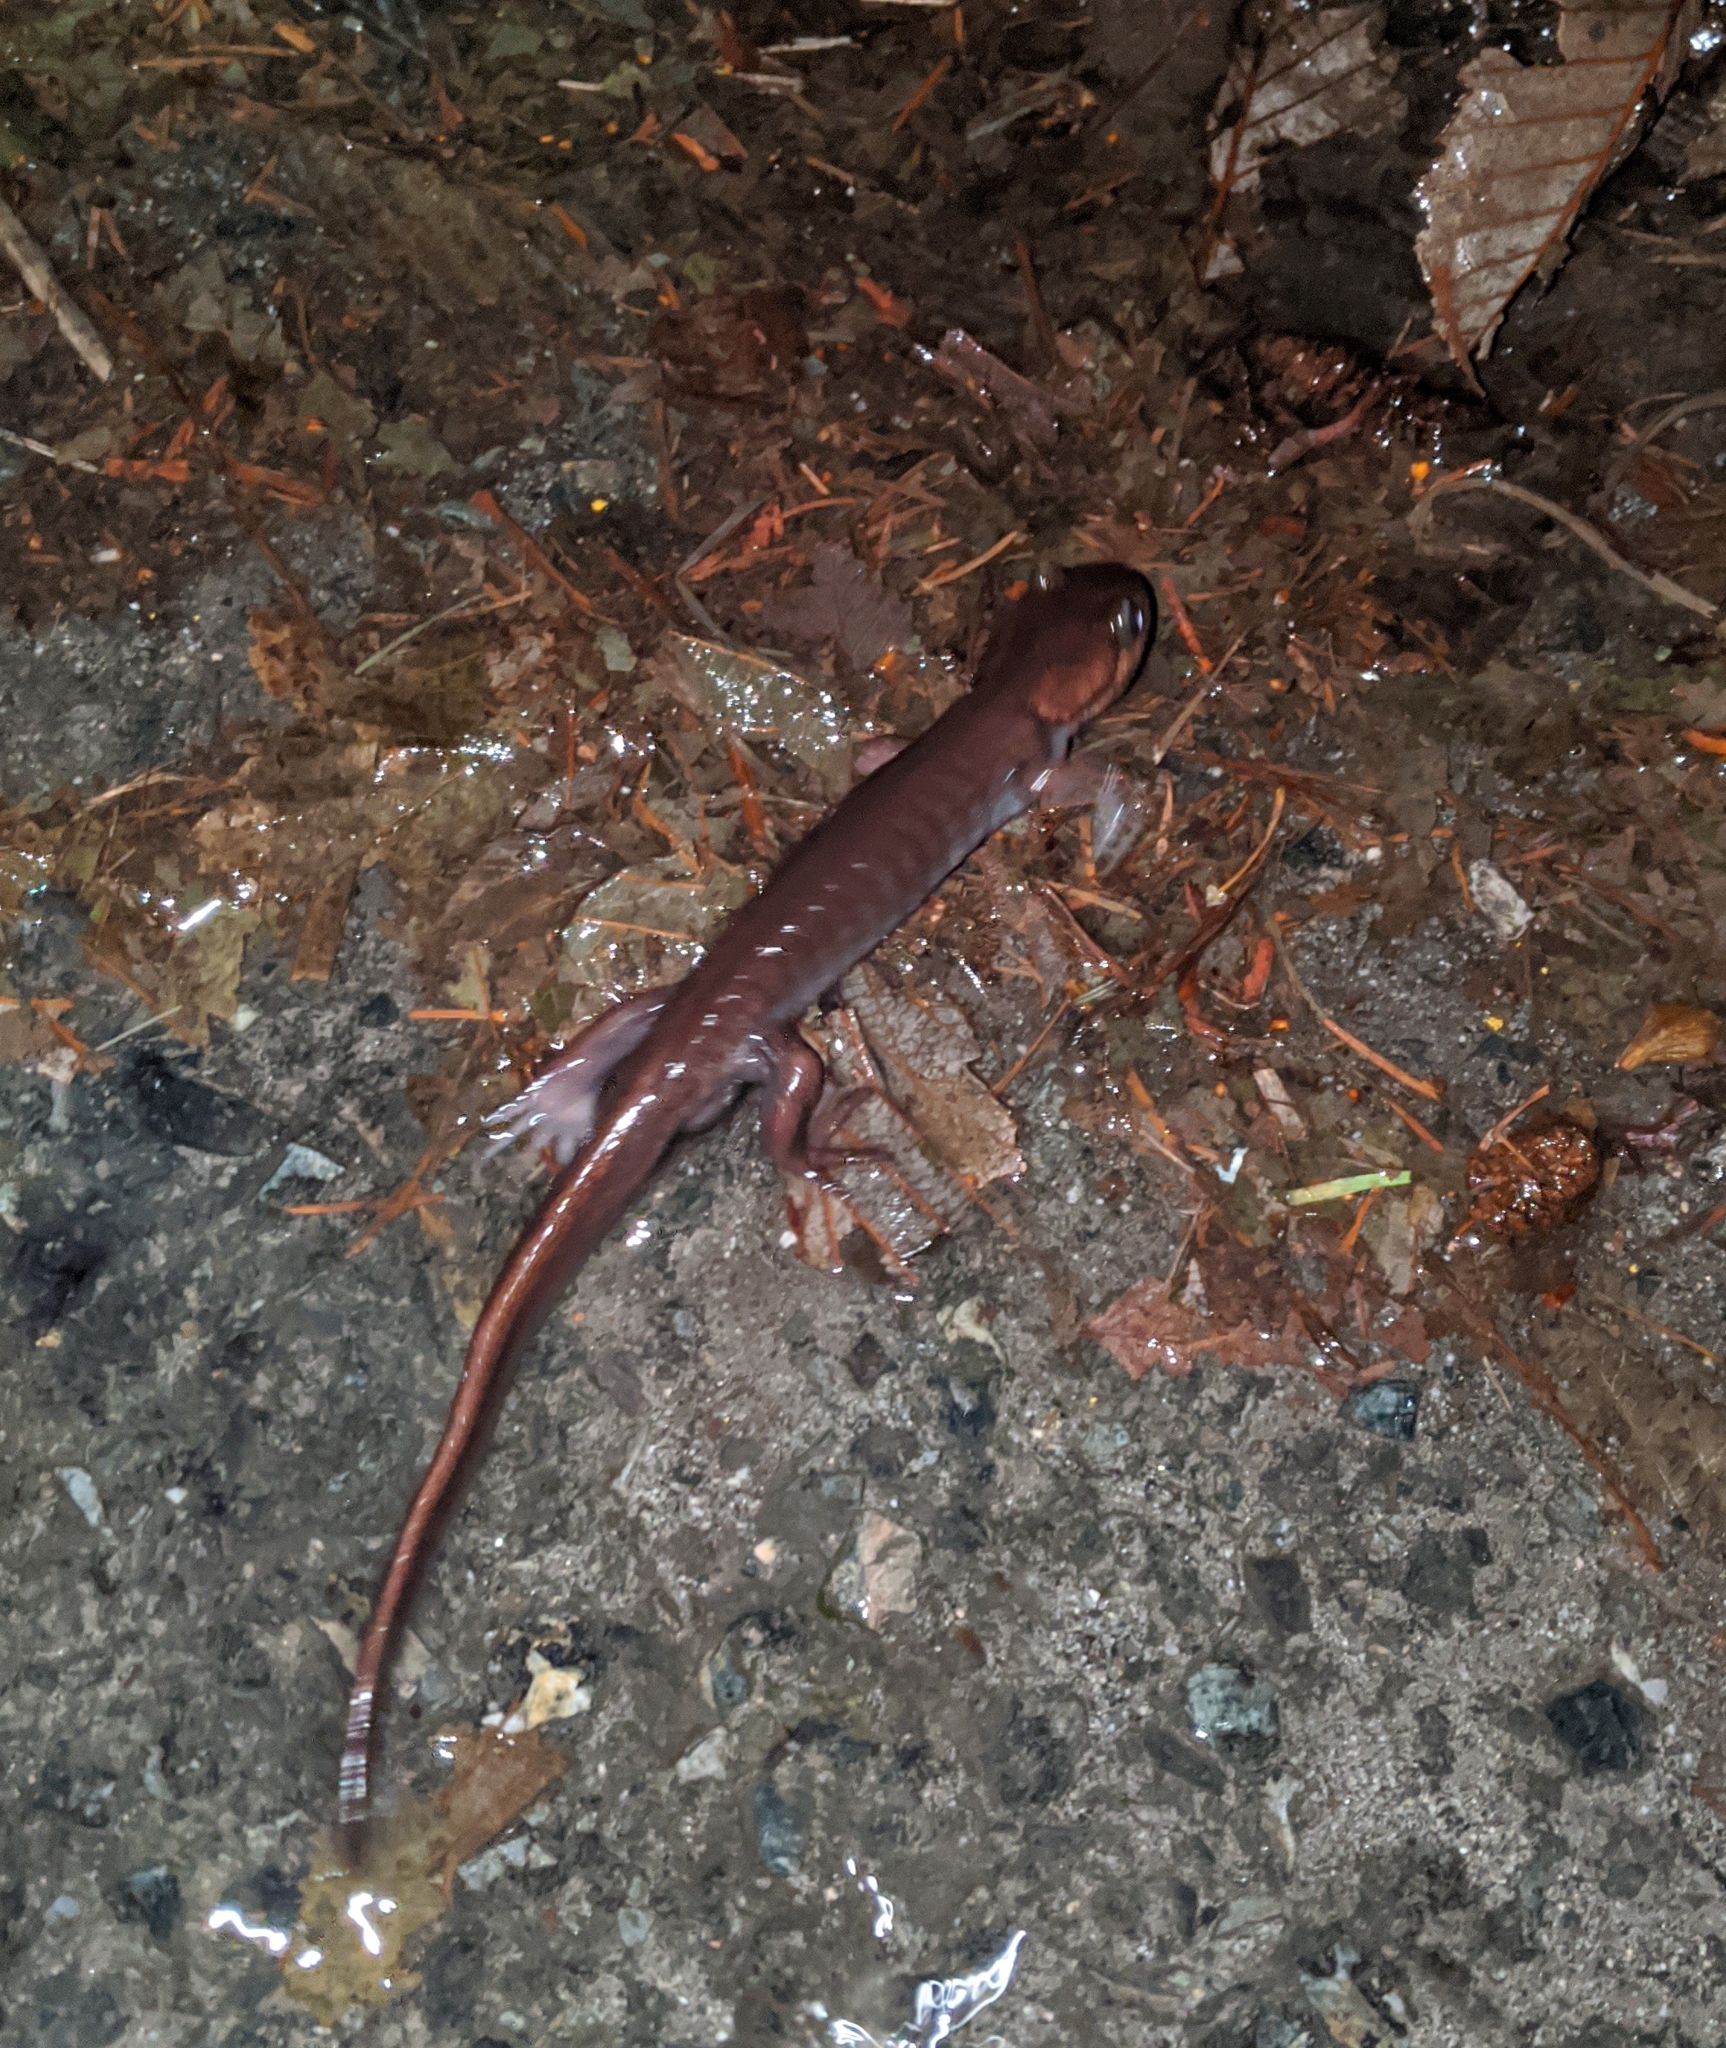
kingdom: Animalia
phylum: Chordata
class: Amphibia
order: Caudata
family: Ambystomatidae
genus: Ambystoma
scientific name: Ambystoma gracile
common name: Northwestern salamander
